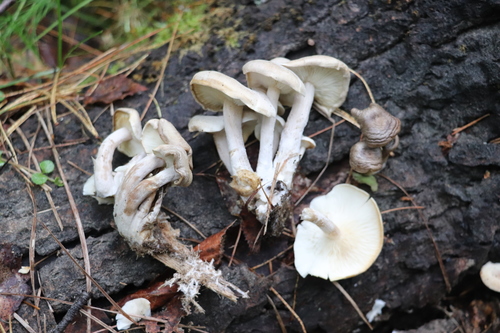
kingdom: Fungi
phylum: Basidiomycota
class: Agaricomycetes
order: Agaricales
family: Lyophyllaceae
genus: Ossicaulis
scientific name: Ossicaulis lignatilis
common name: Mealy oyster
